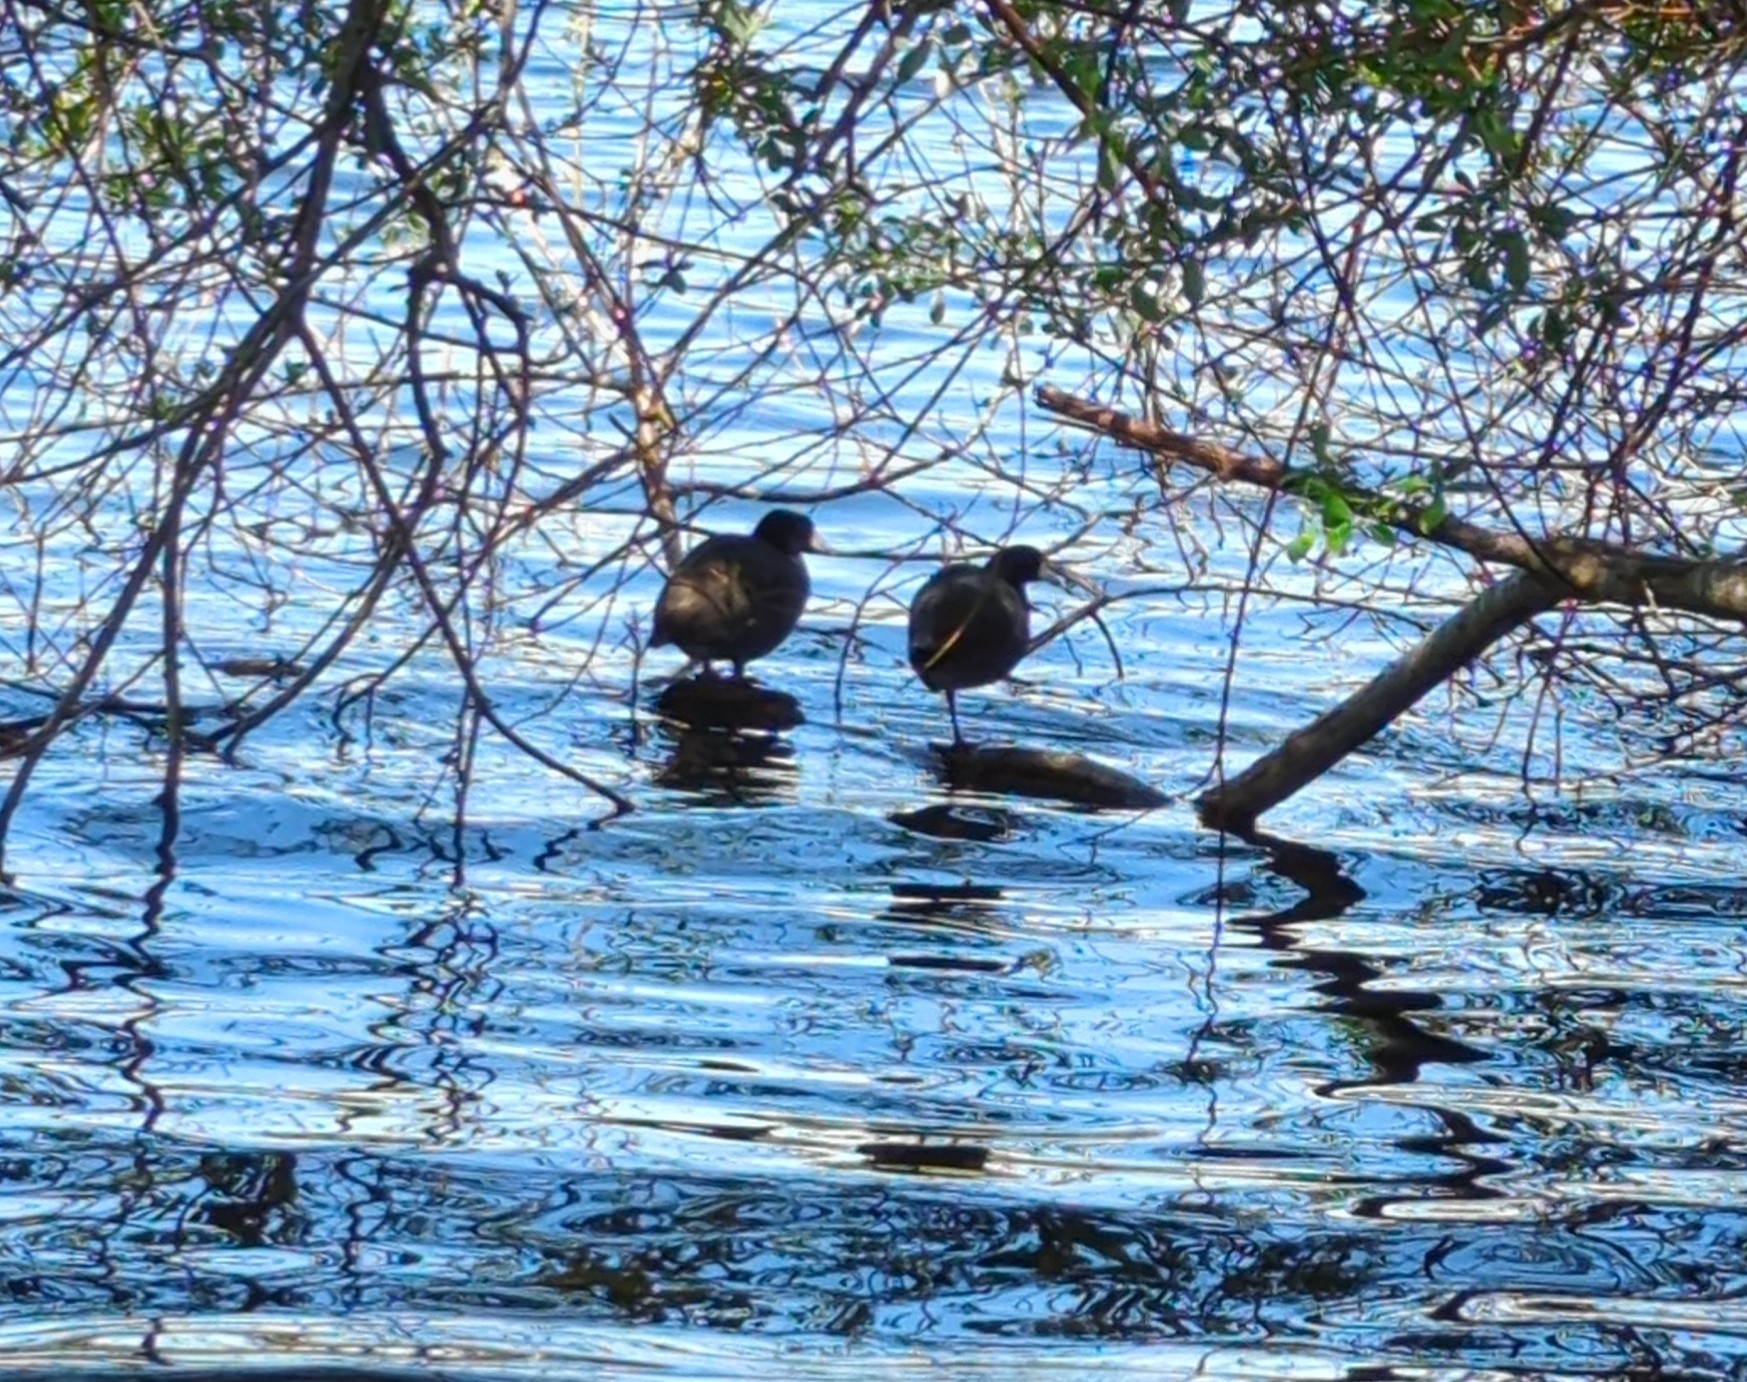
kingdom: Animalia
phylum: Chordata
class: Aves
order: Gruiformes
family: Rallidae
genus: Fulica
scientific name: Fulica americana
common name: American coot
